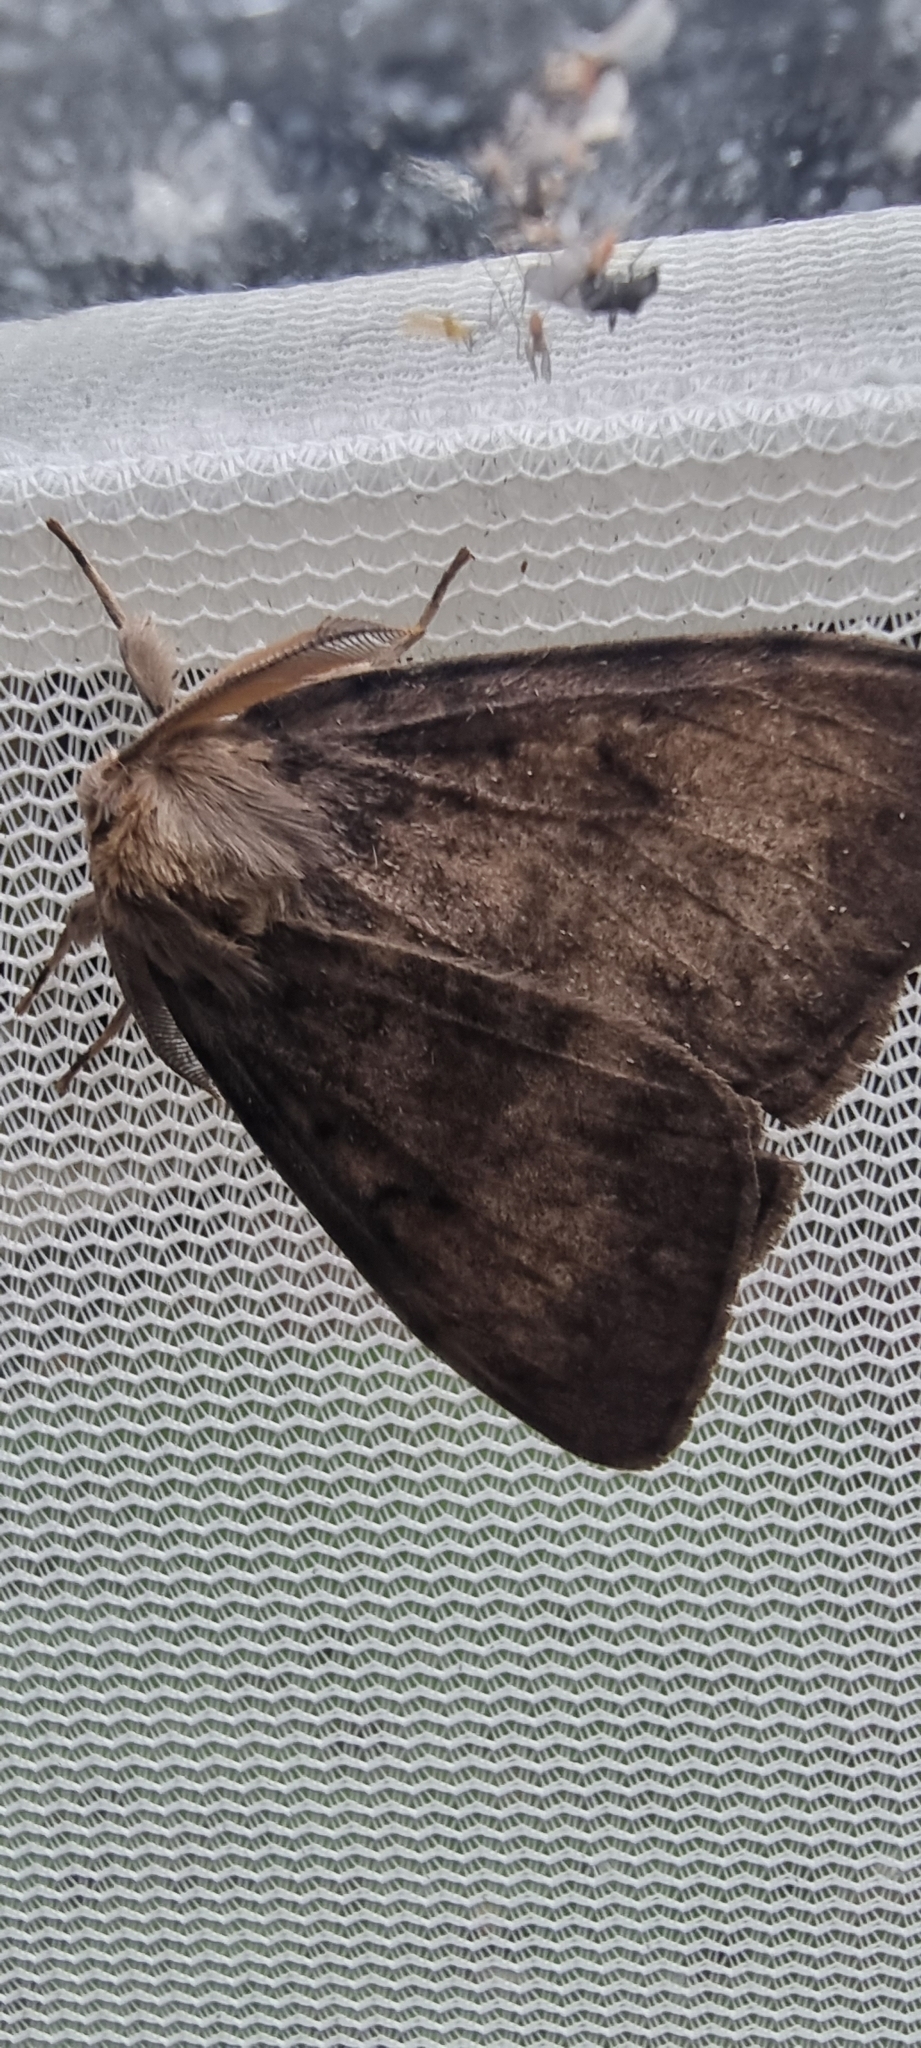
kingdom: Animalia
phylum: Arthropoda
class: Insecta
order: Lepidoptera
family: Erebidae
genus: Lymantria
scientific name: Lymantria dispar
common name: Gypsy moth
